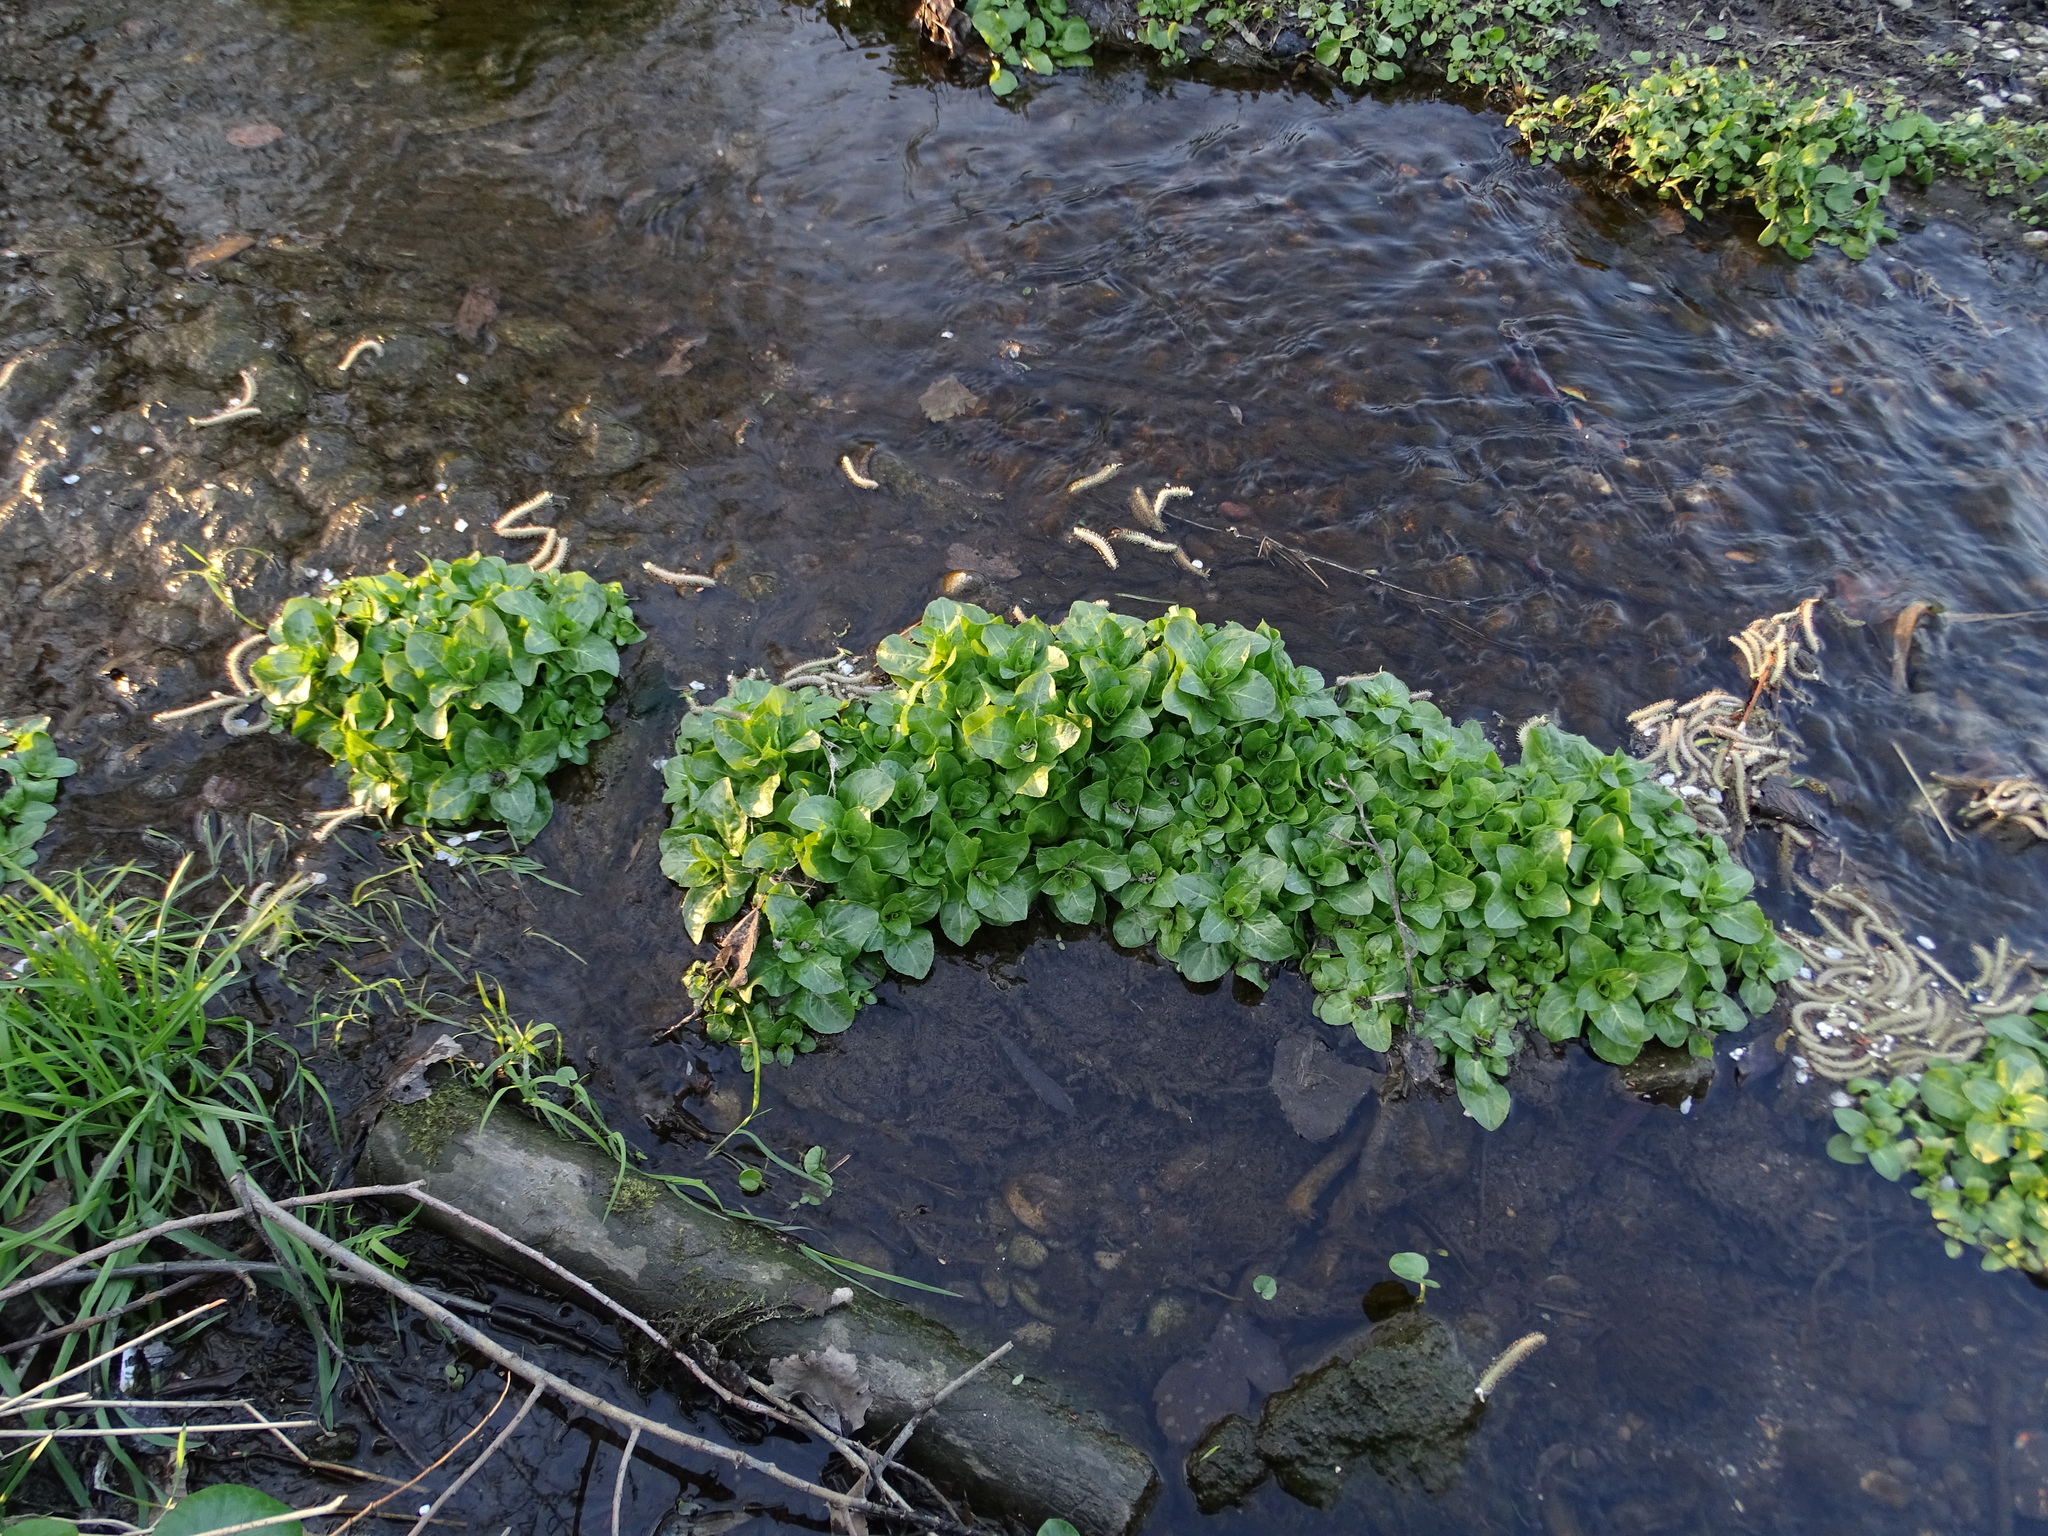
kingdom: Plantae
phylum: Tracheophyta
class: Magnoliopsida
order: Lamiales
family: Plantaginaceae
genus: Veronica
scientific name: Veronica beccabunga
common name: Brooklime
